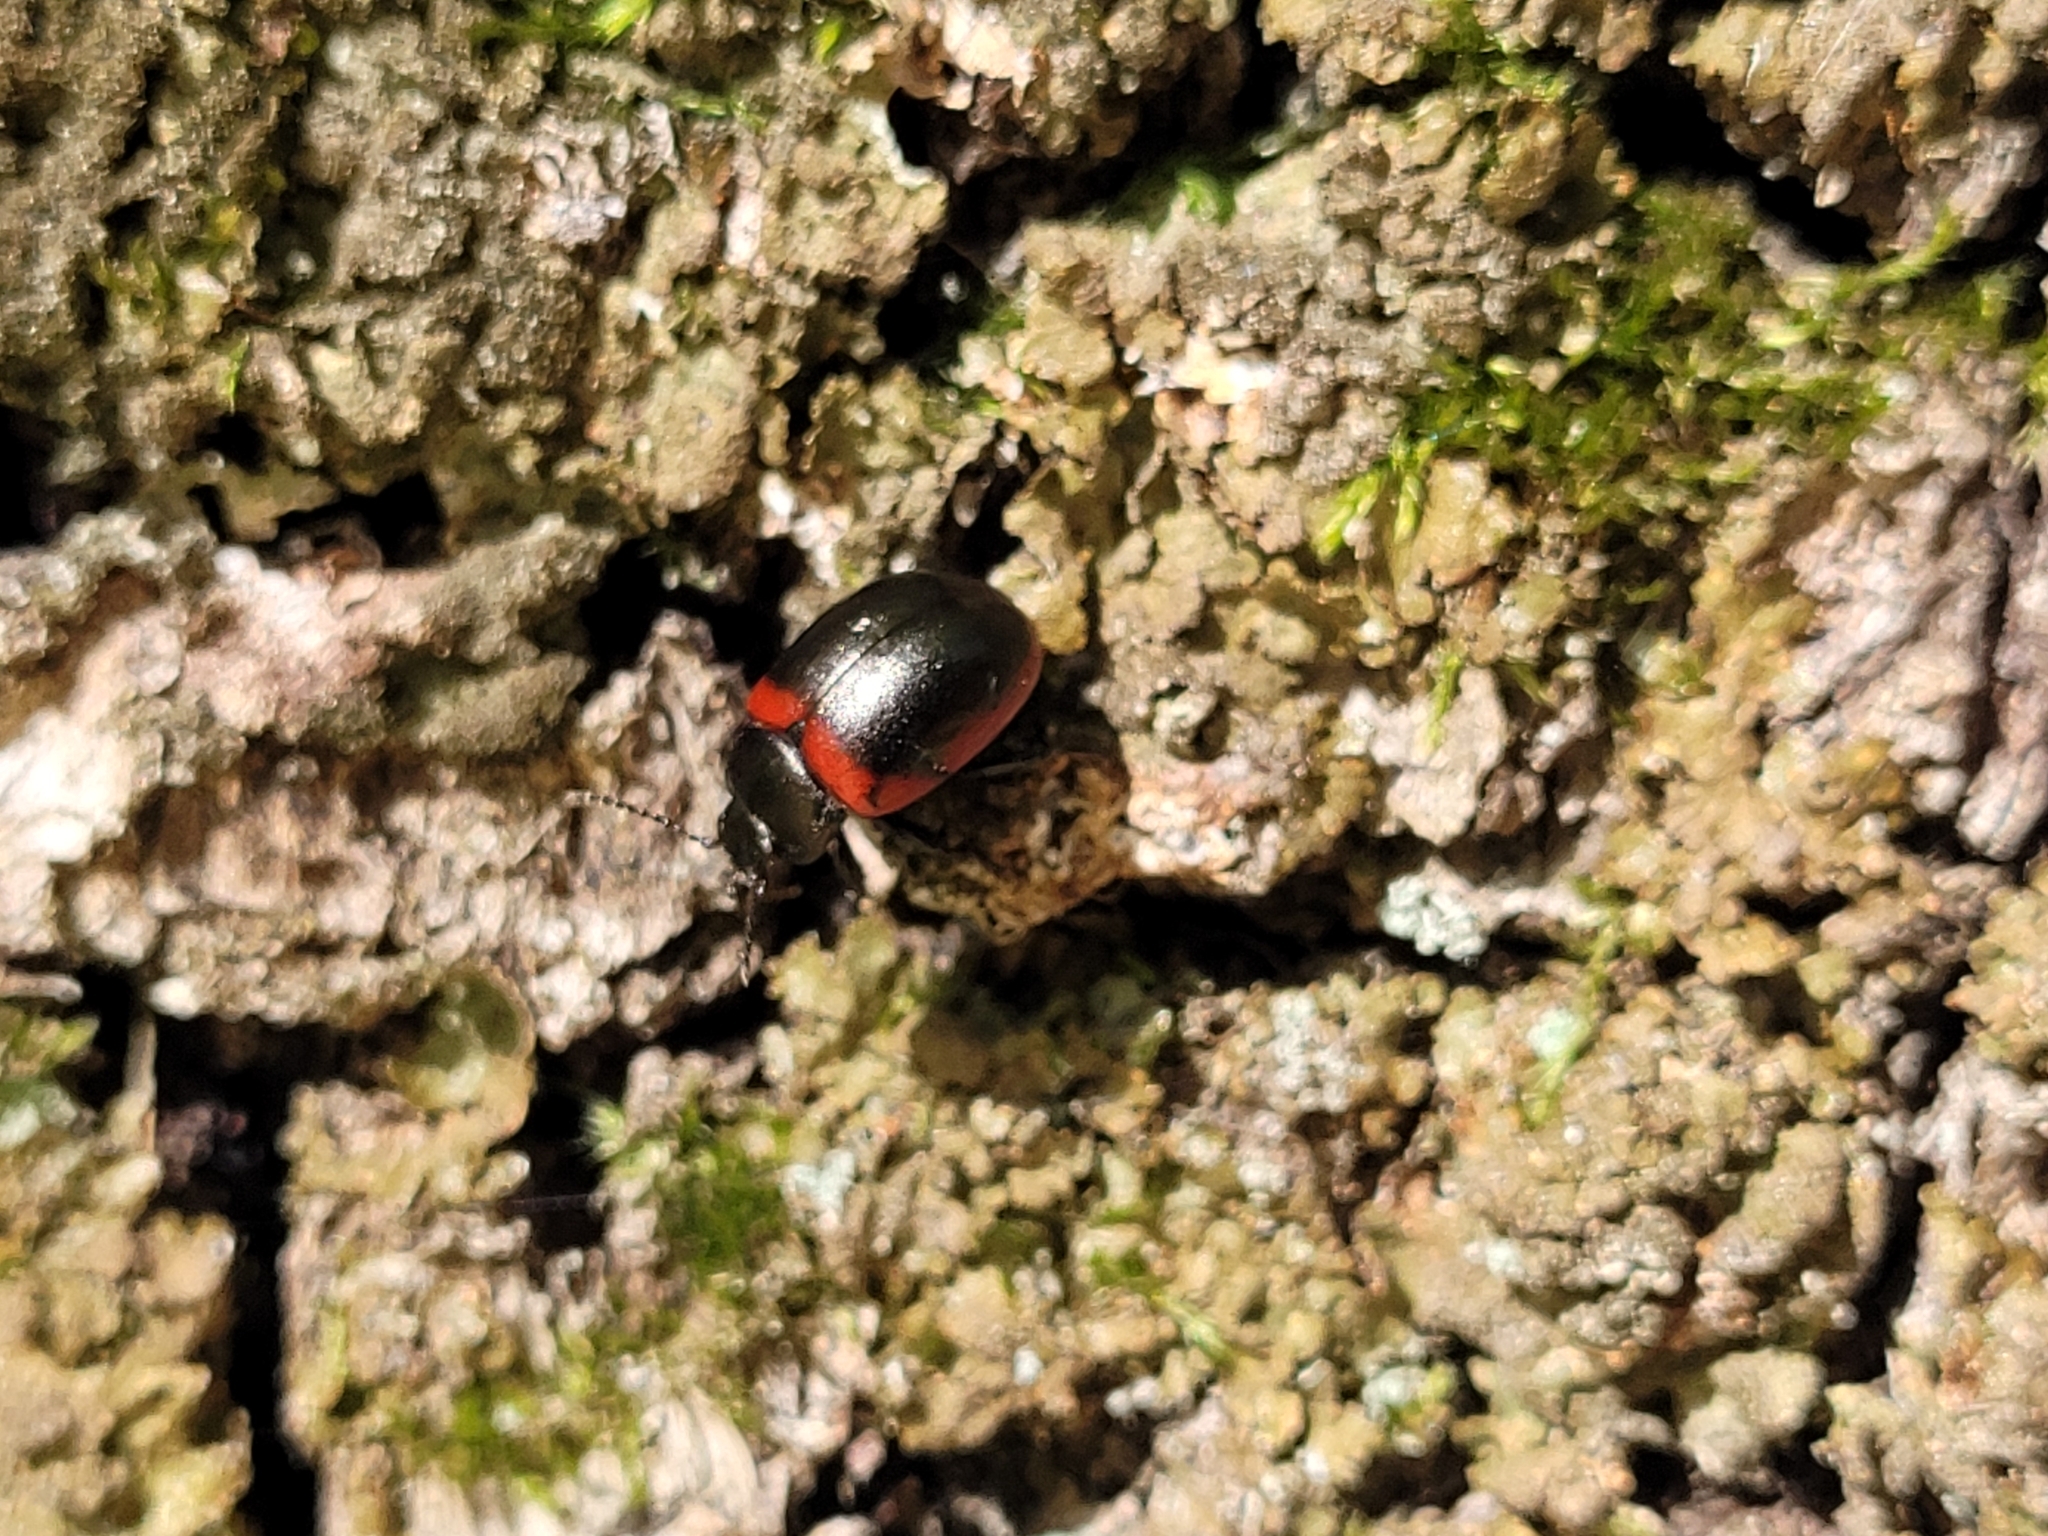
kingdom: Animalia
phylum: Arthropoda
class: Insecta
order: Coleoptera
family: Chrysomelidae
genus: Chrysolina
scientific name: Chrysolina limbata
